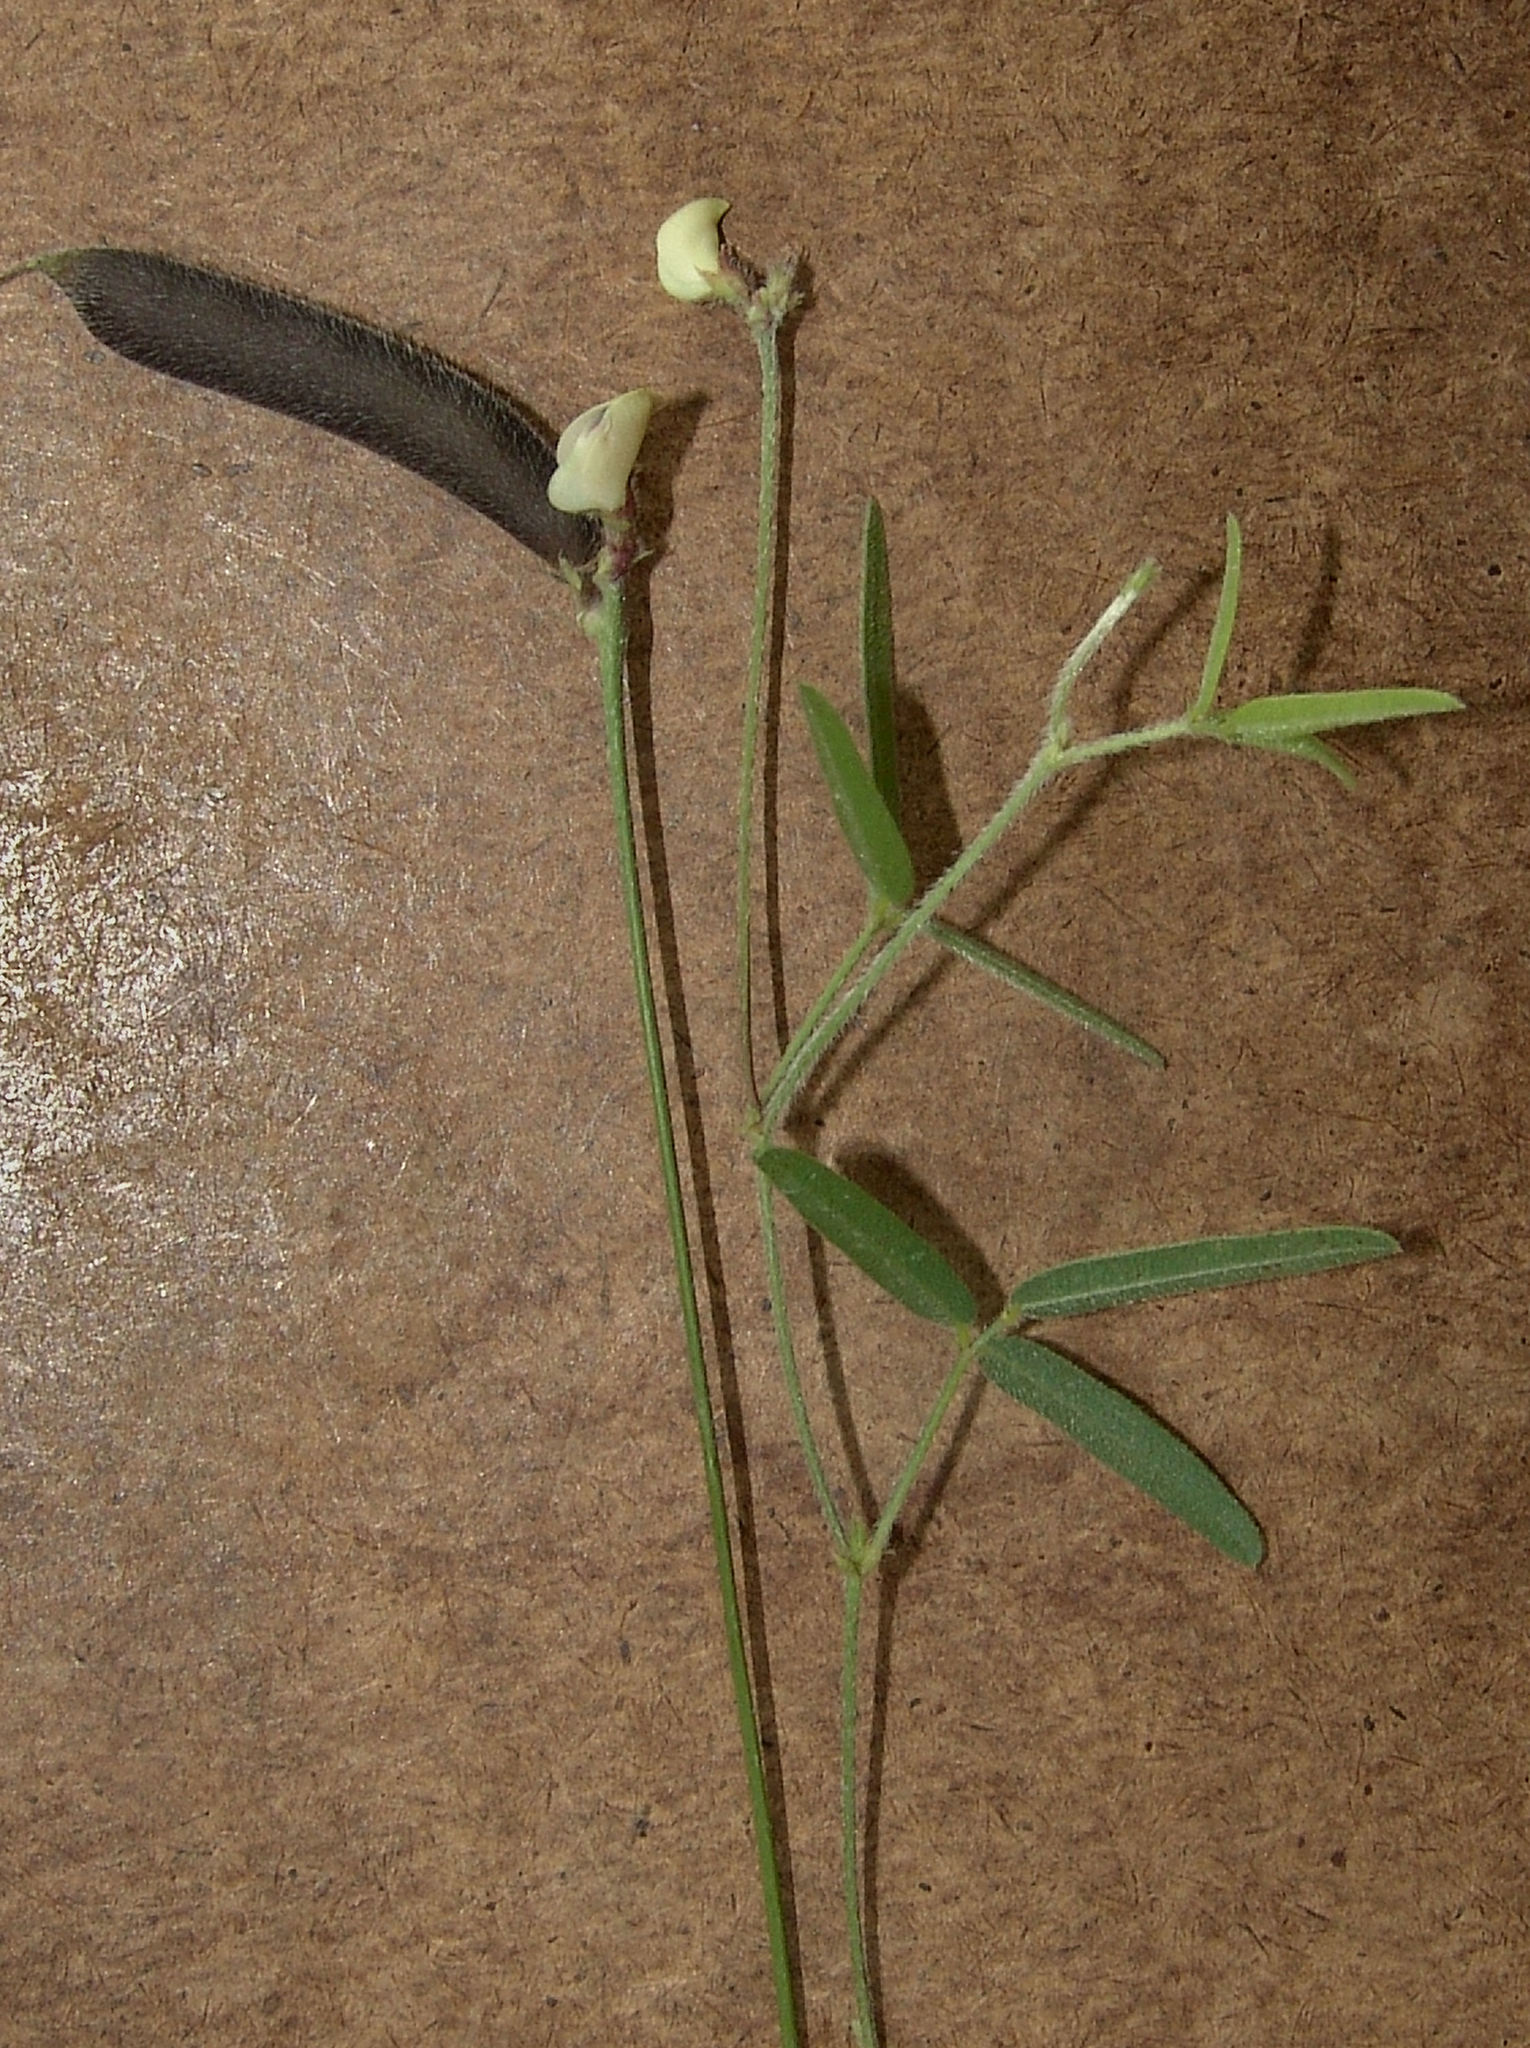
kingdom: Plantae
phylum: Tracheophyta
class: Magnoliopsida
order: Fabales
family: Fabaceae
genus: Strophostyles
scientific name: Strophostyles leiosperma
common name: Smooth-seed wild bean
